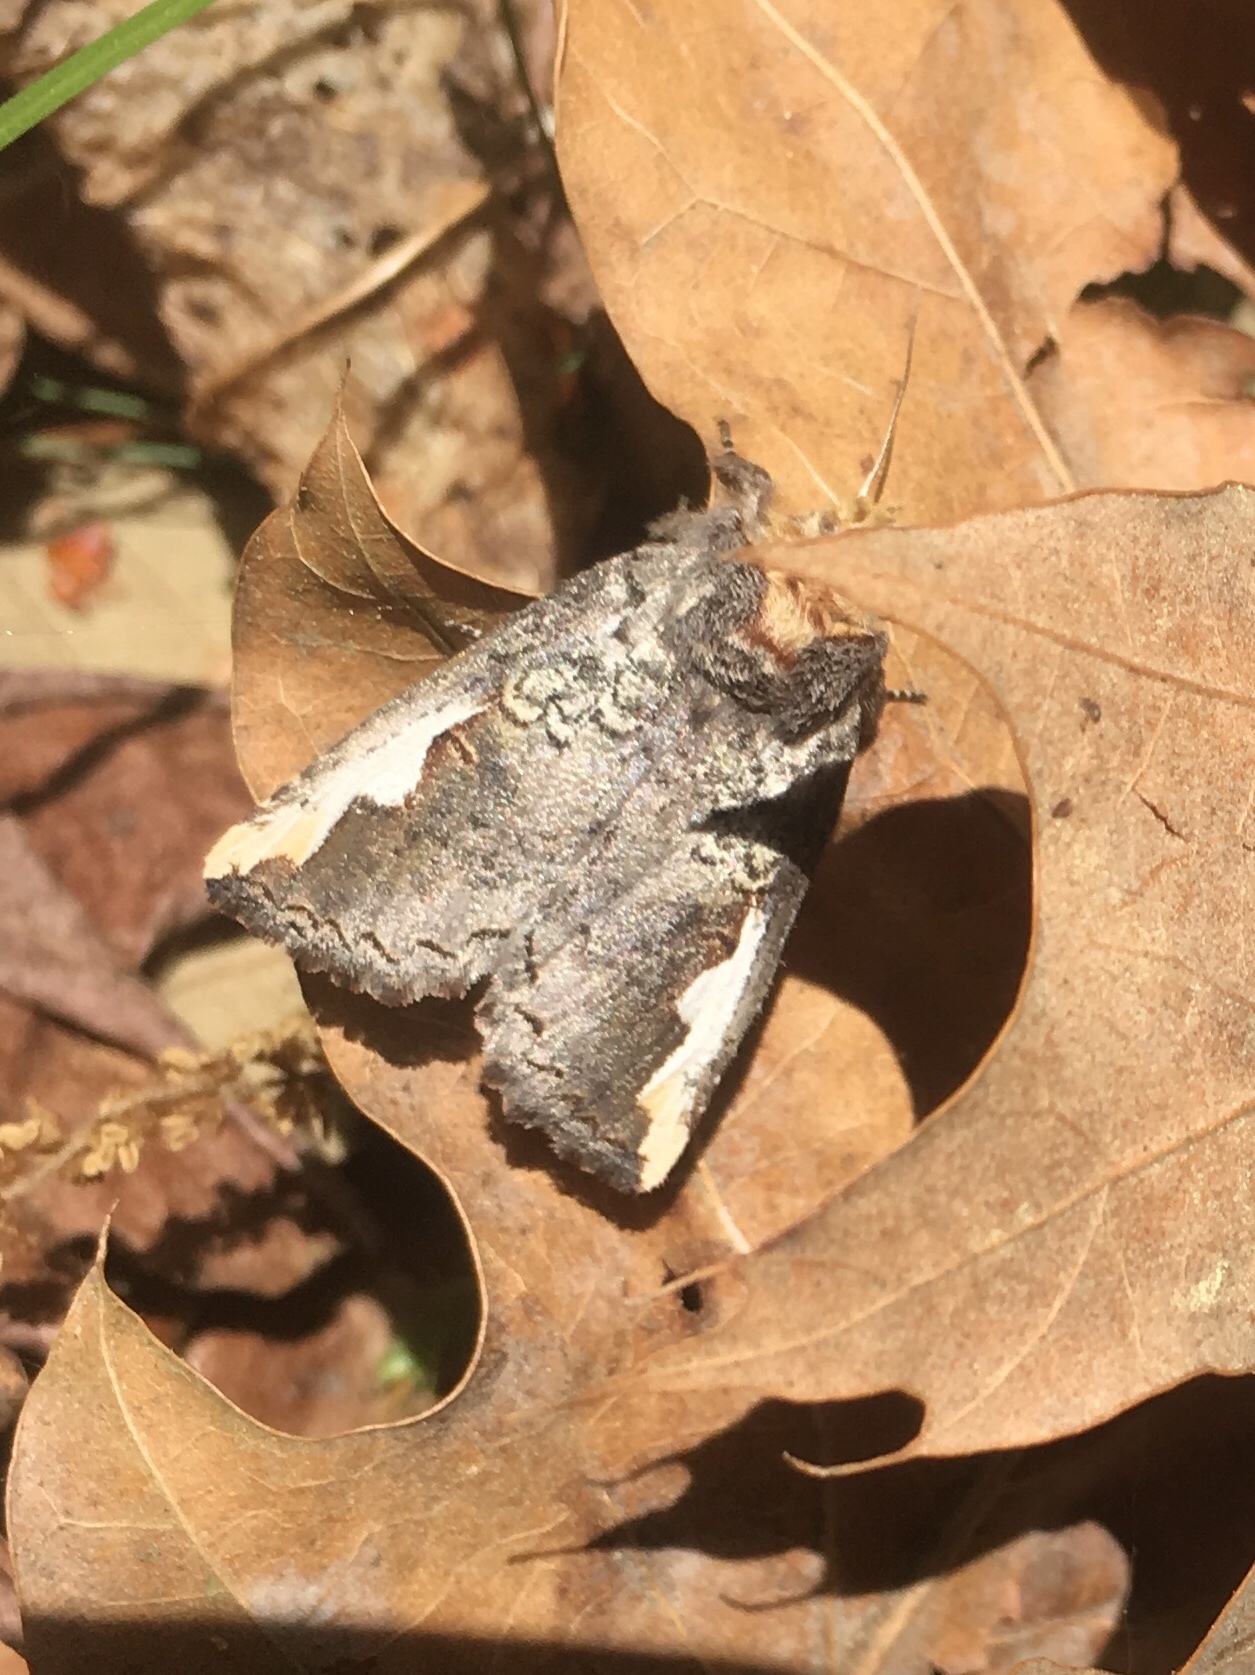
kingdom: Animalia
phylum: Arthropoda
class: Insecta
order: Lepidoptera
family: Notodontidae
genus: Symmerista
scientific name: Symmerista
